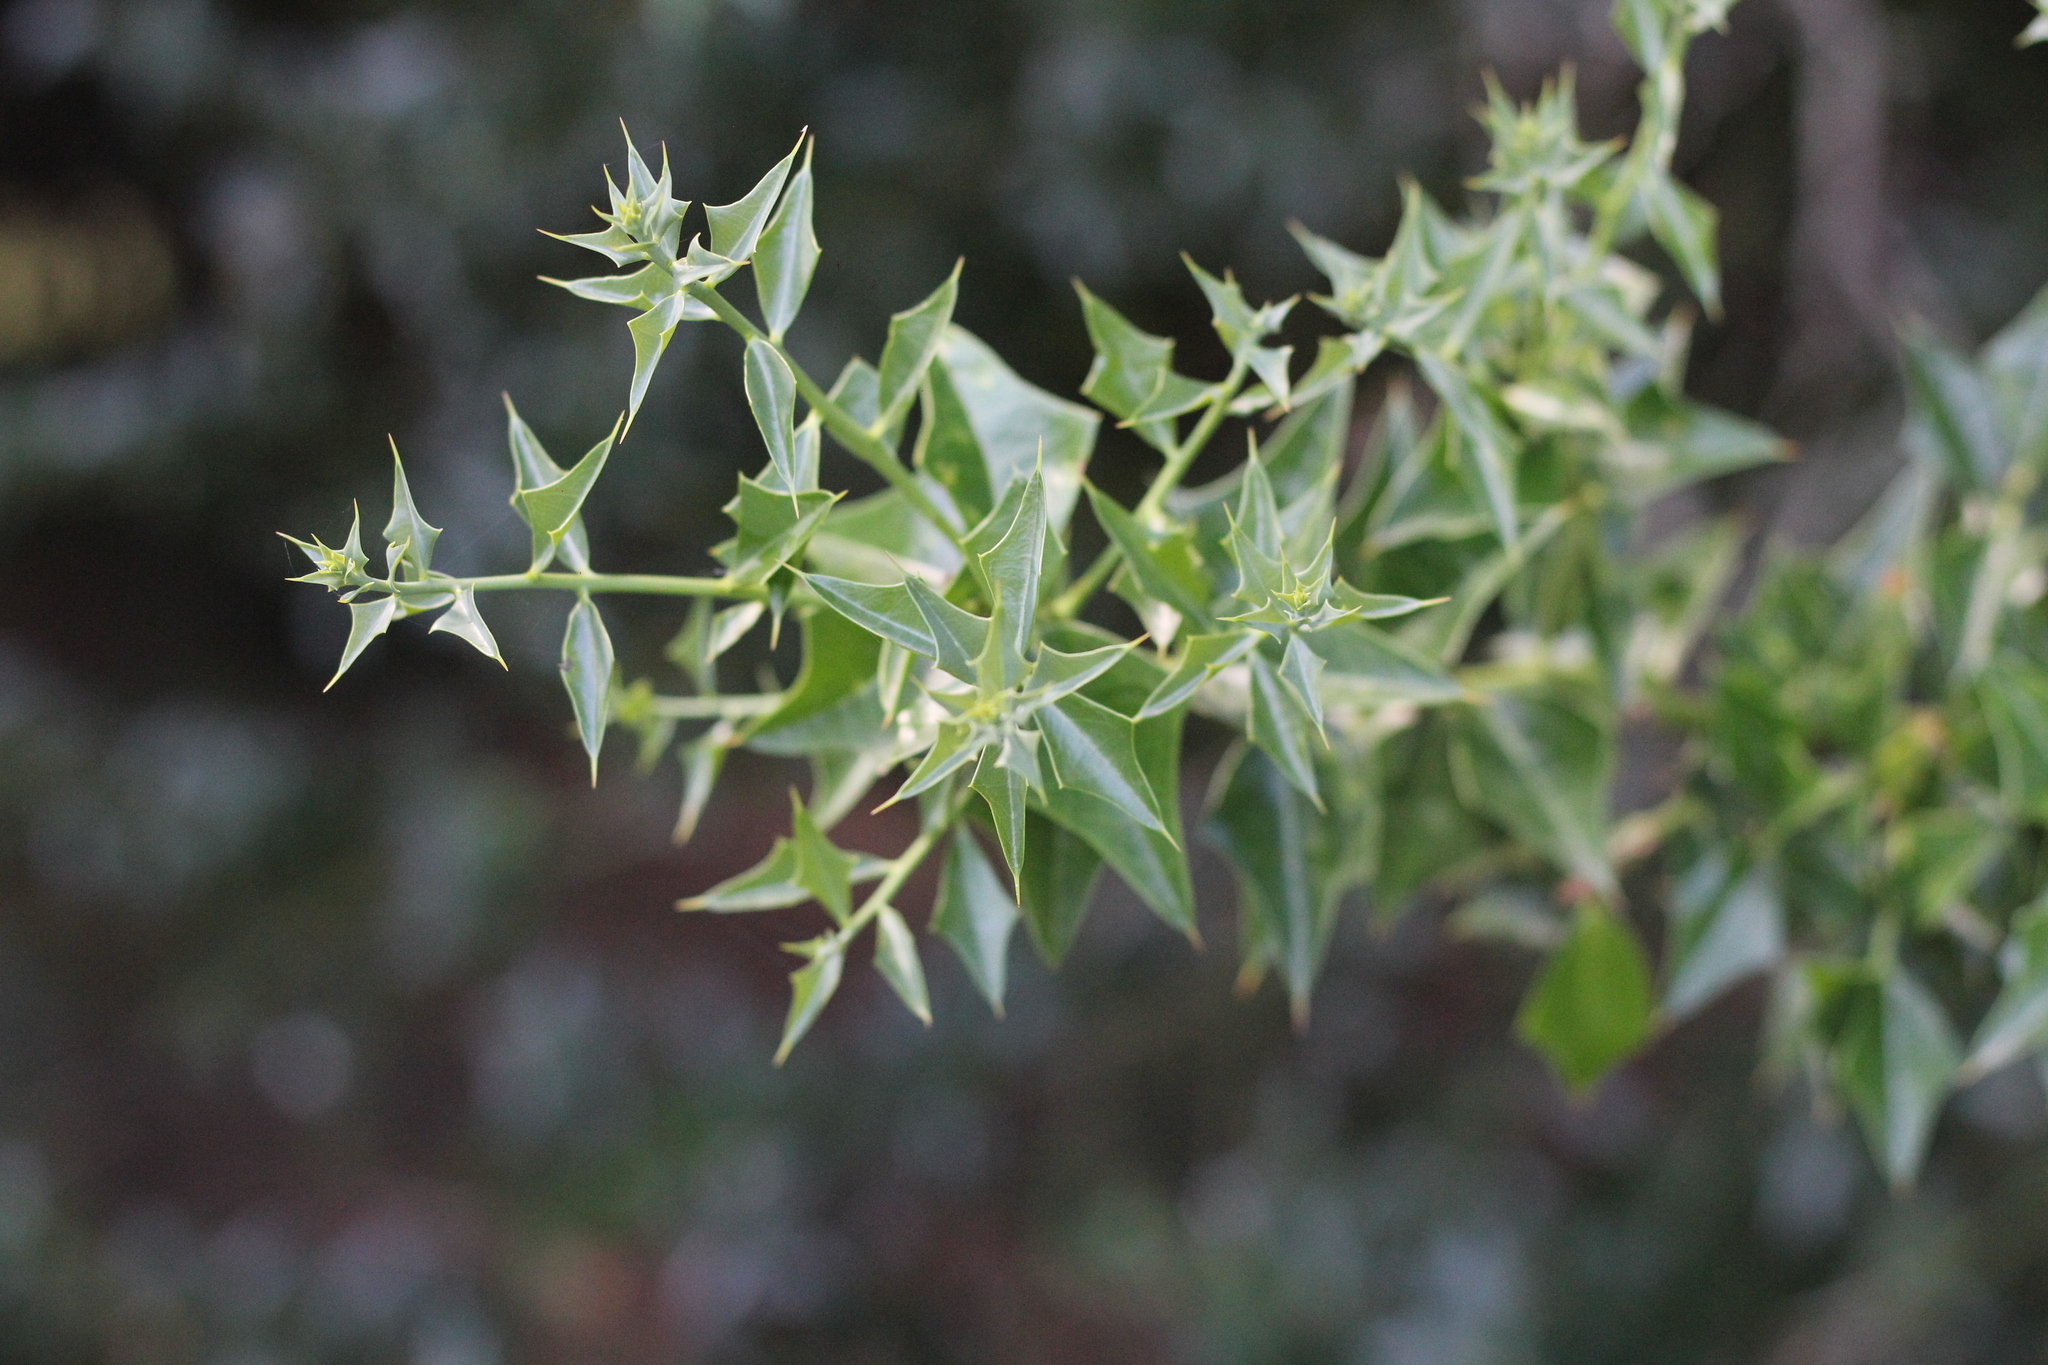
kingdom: Plantae
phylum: Tracheophyta
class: Magnoliopsida
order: Santalales
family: Cervantesiaceae
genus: Jodina
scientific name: Jodina rhombifolia
